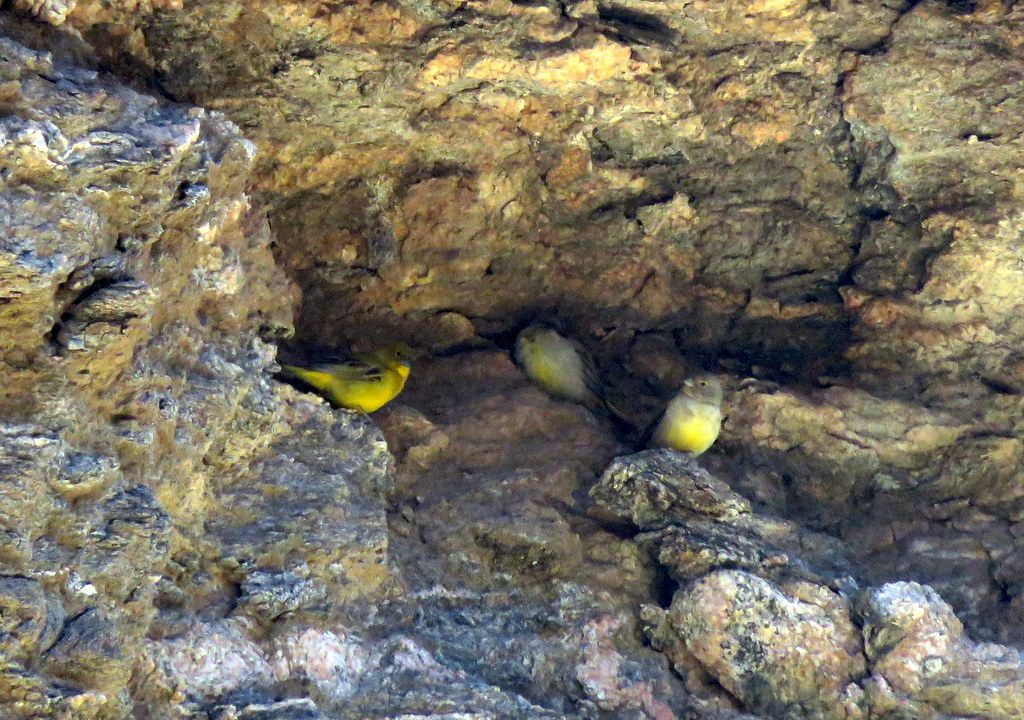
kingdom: Animalia
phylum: Chordata
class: Aves
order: Passeriformes
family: Thraupidae
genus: Sicalis
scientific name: Sicalis mendozae
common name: Monte yellow-finch
